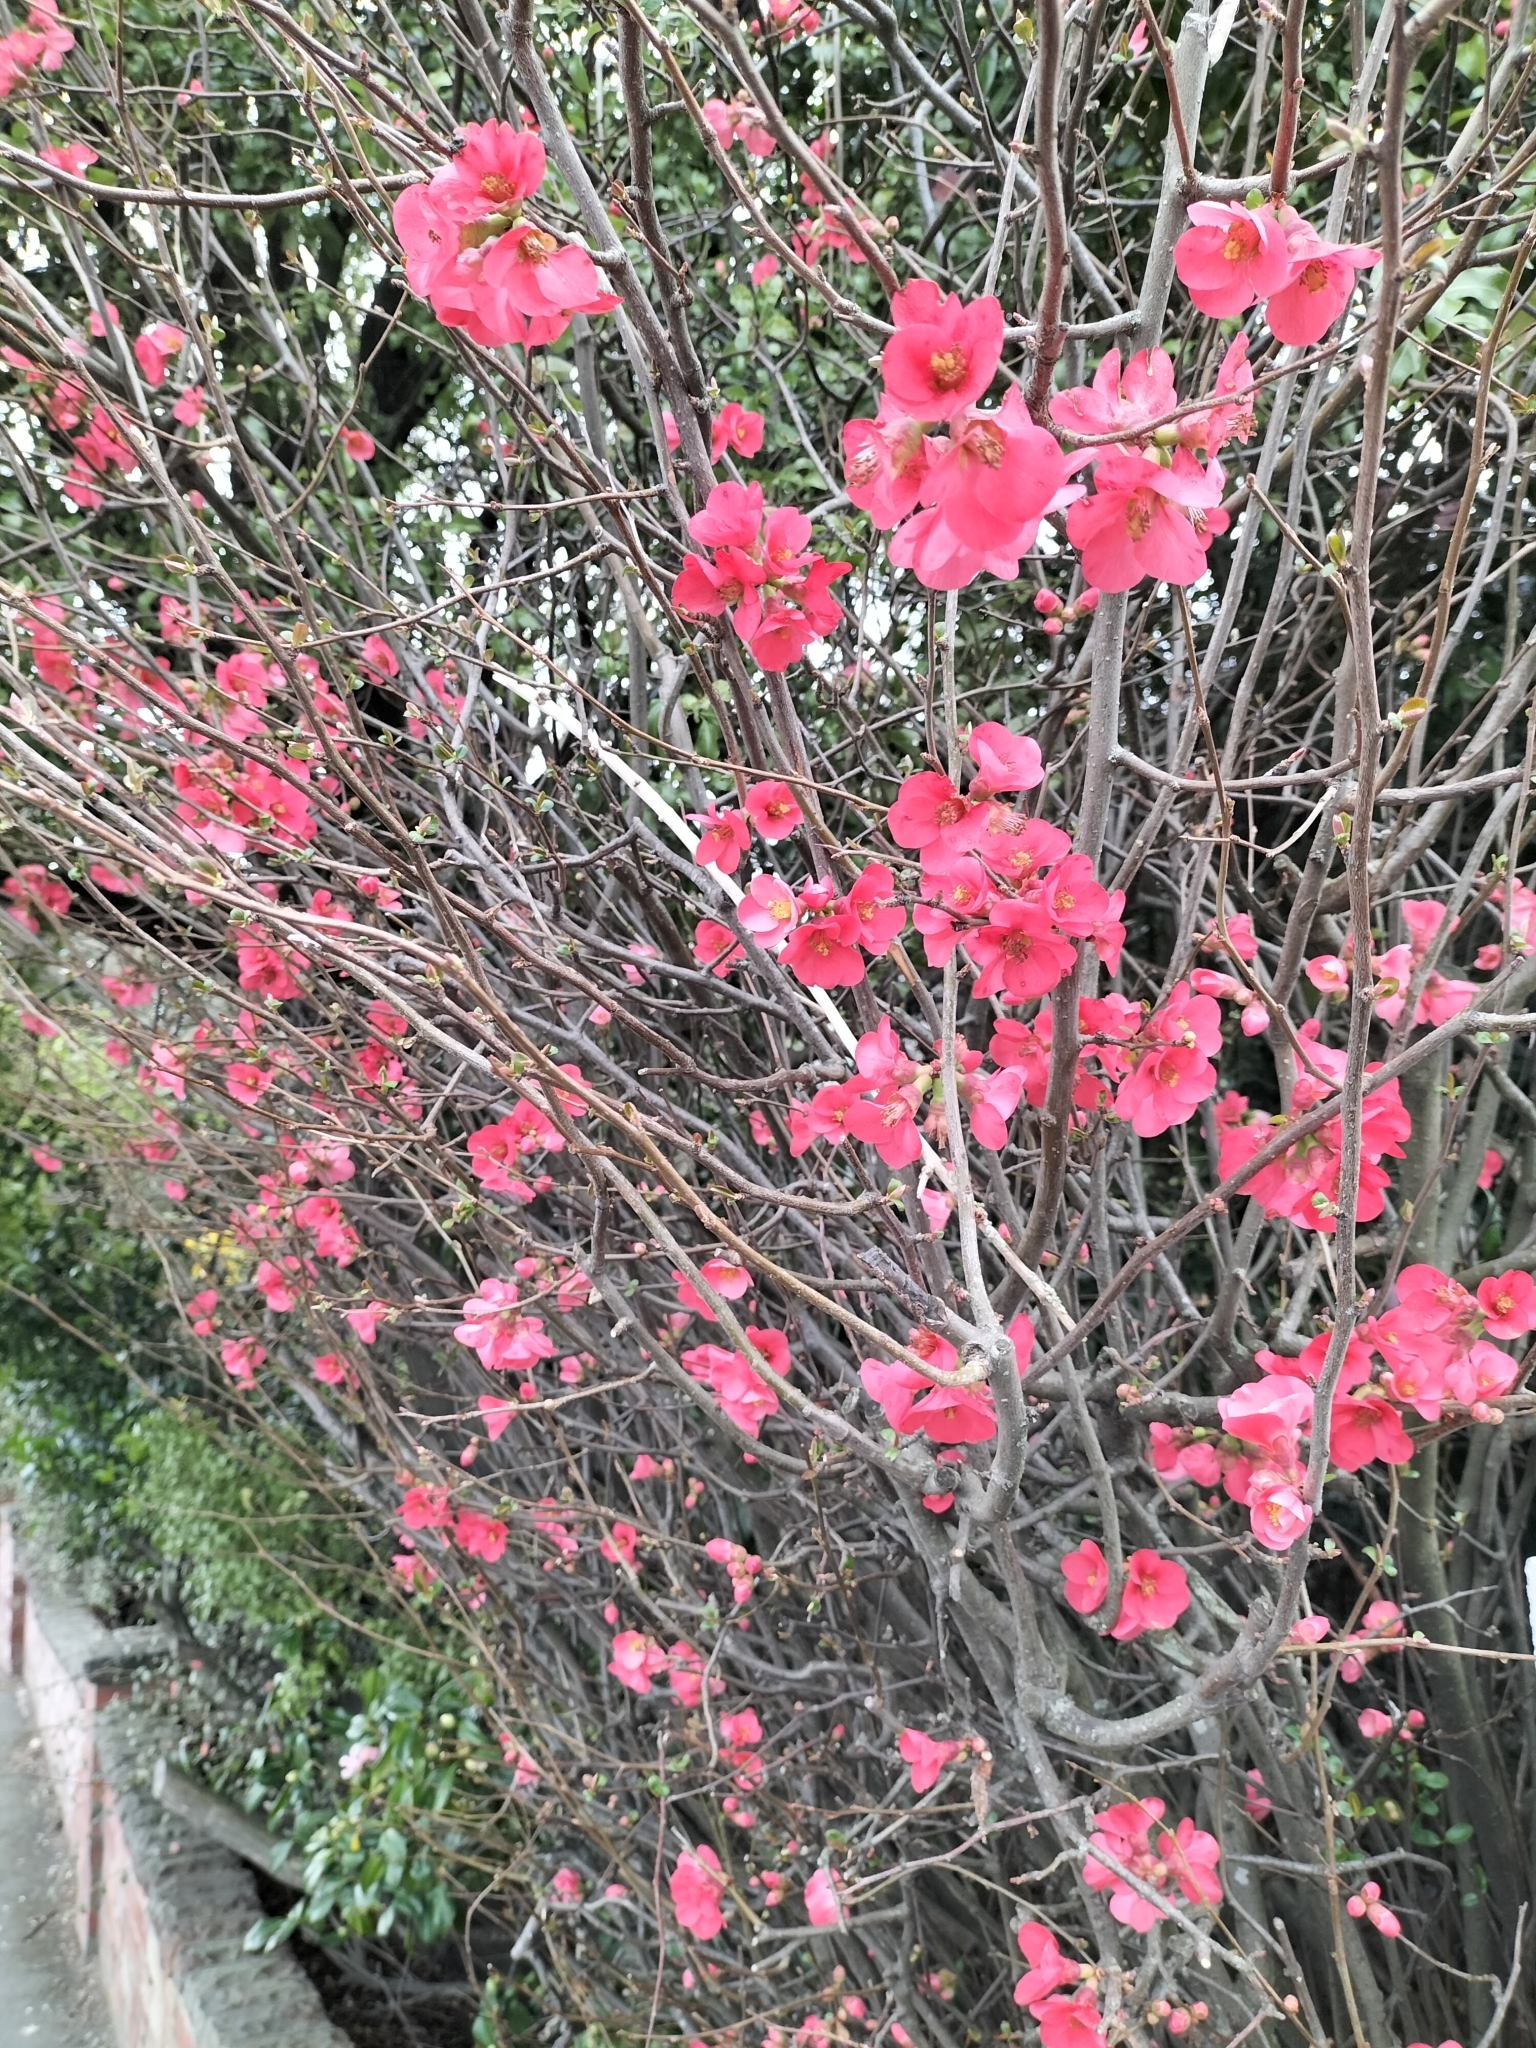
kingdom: Plantae
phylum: Tracheophyta
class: Magnoliopsida
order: Rosales
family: Rosaceae
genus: Chaenomeles
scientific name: Chaenomeles speciosa
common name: Japanese quince
